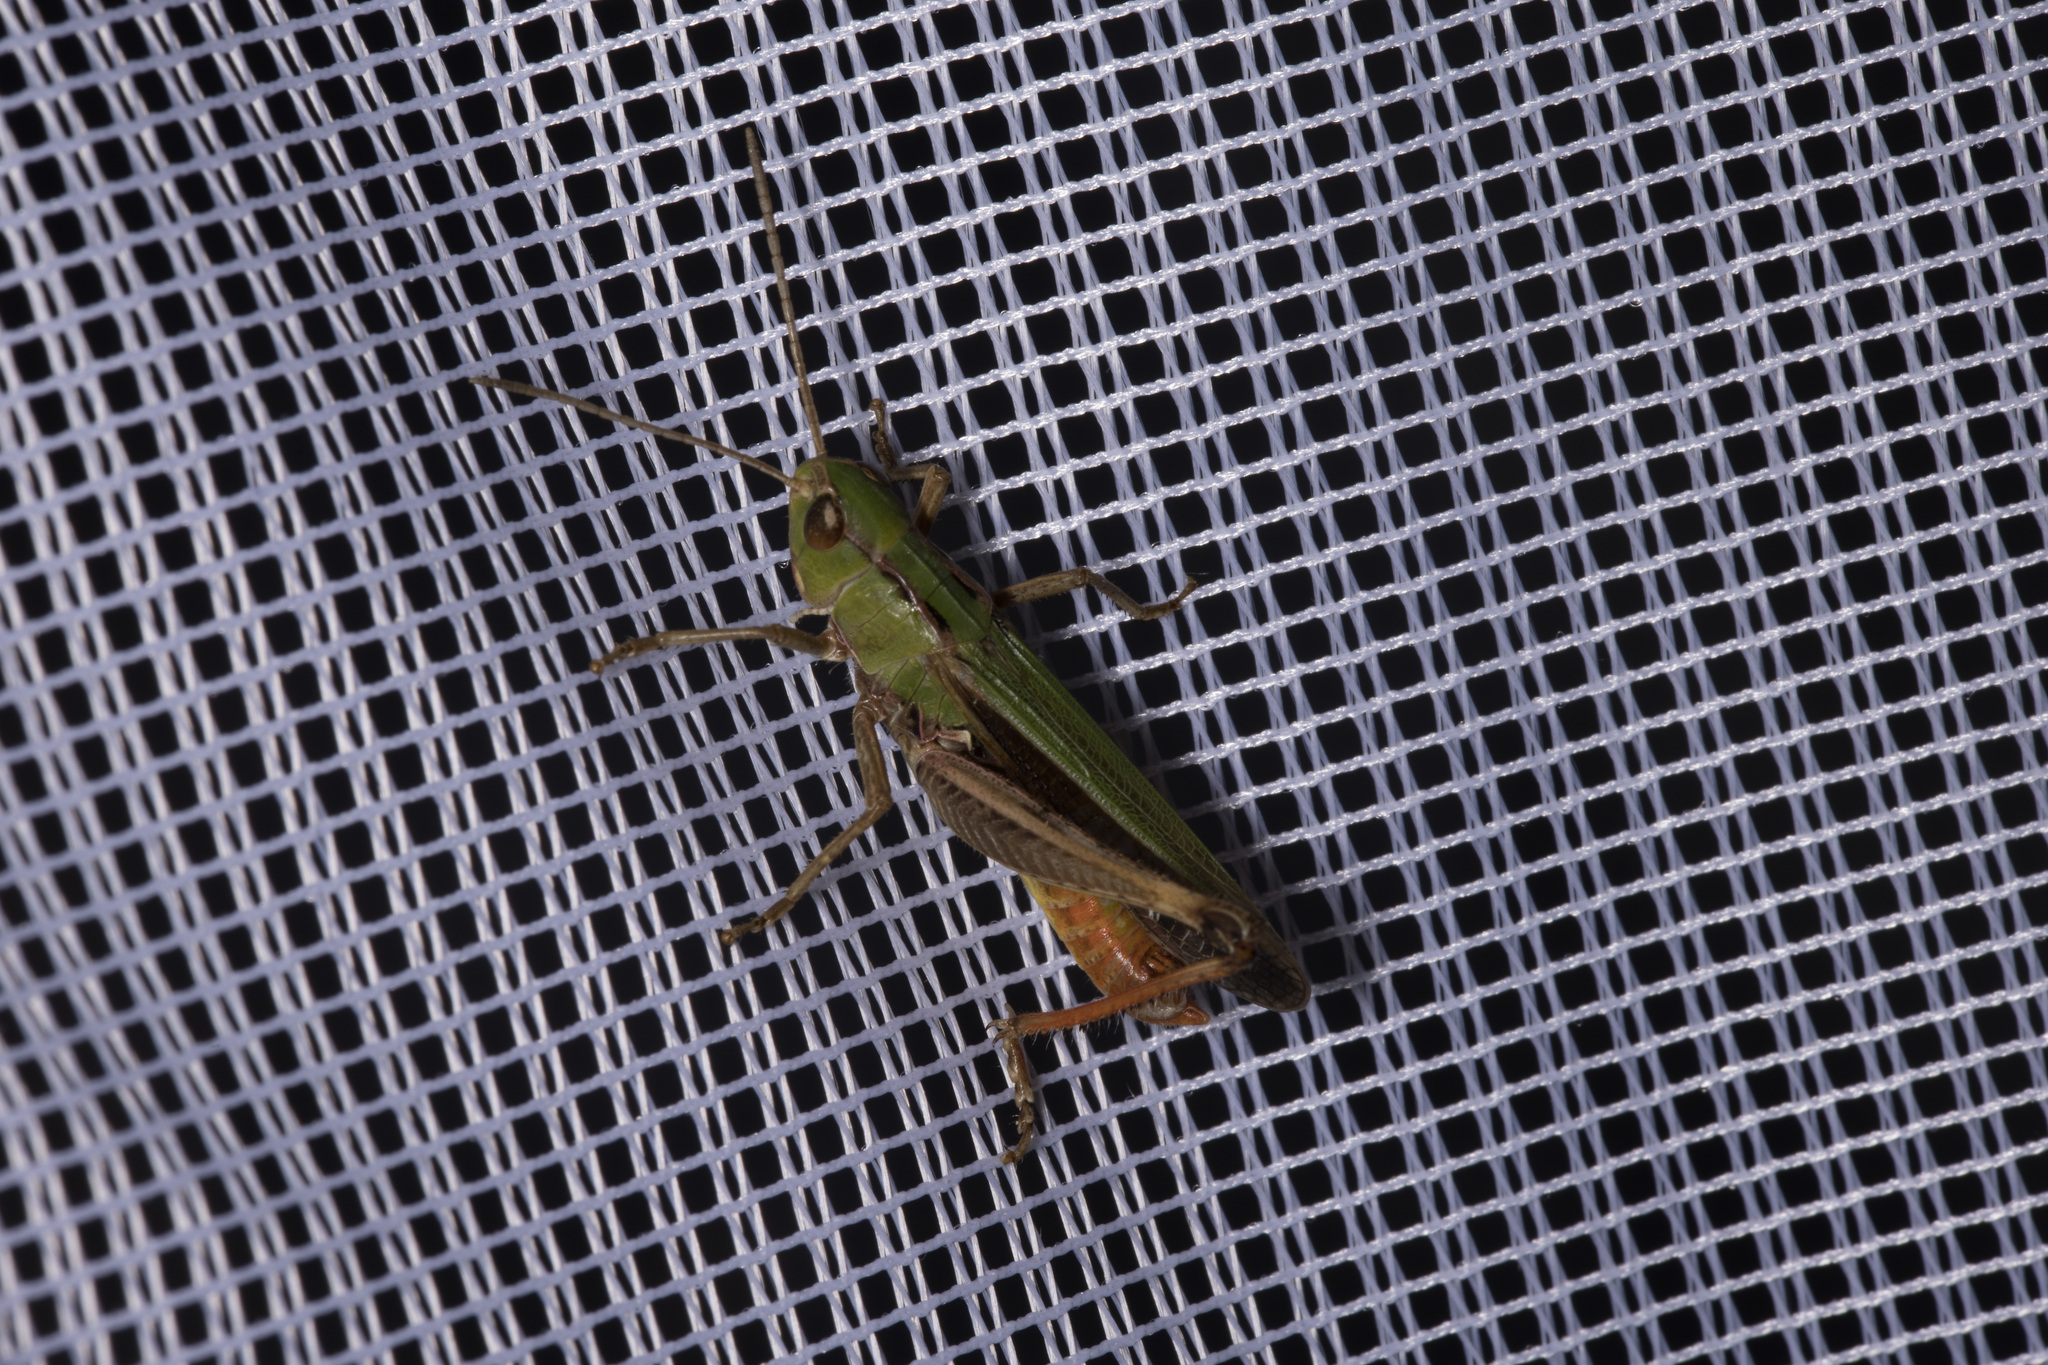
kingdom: Animalia
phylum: Arthropoda
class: Insecta
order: Orthoptera
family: Acrididae
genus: Stenobothrus
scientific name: Stenobothrus lineatus
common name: Stripe-winged grasshopper
